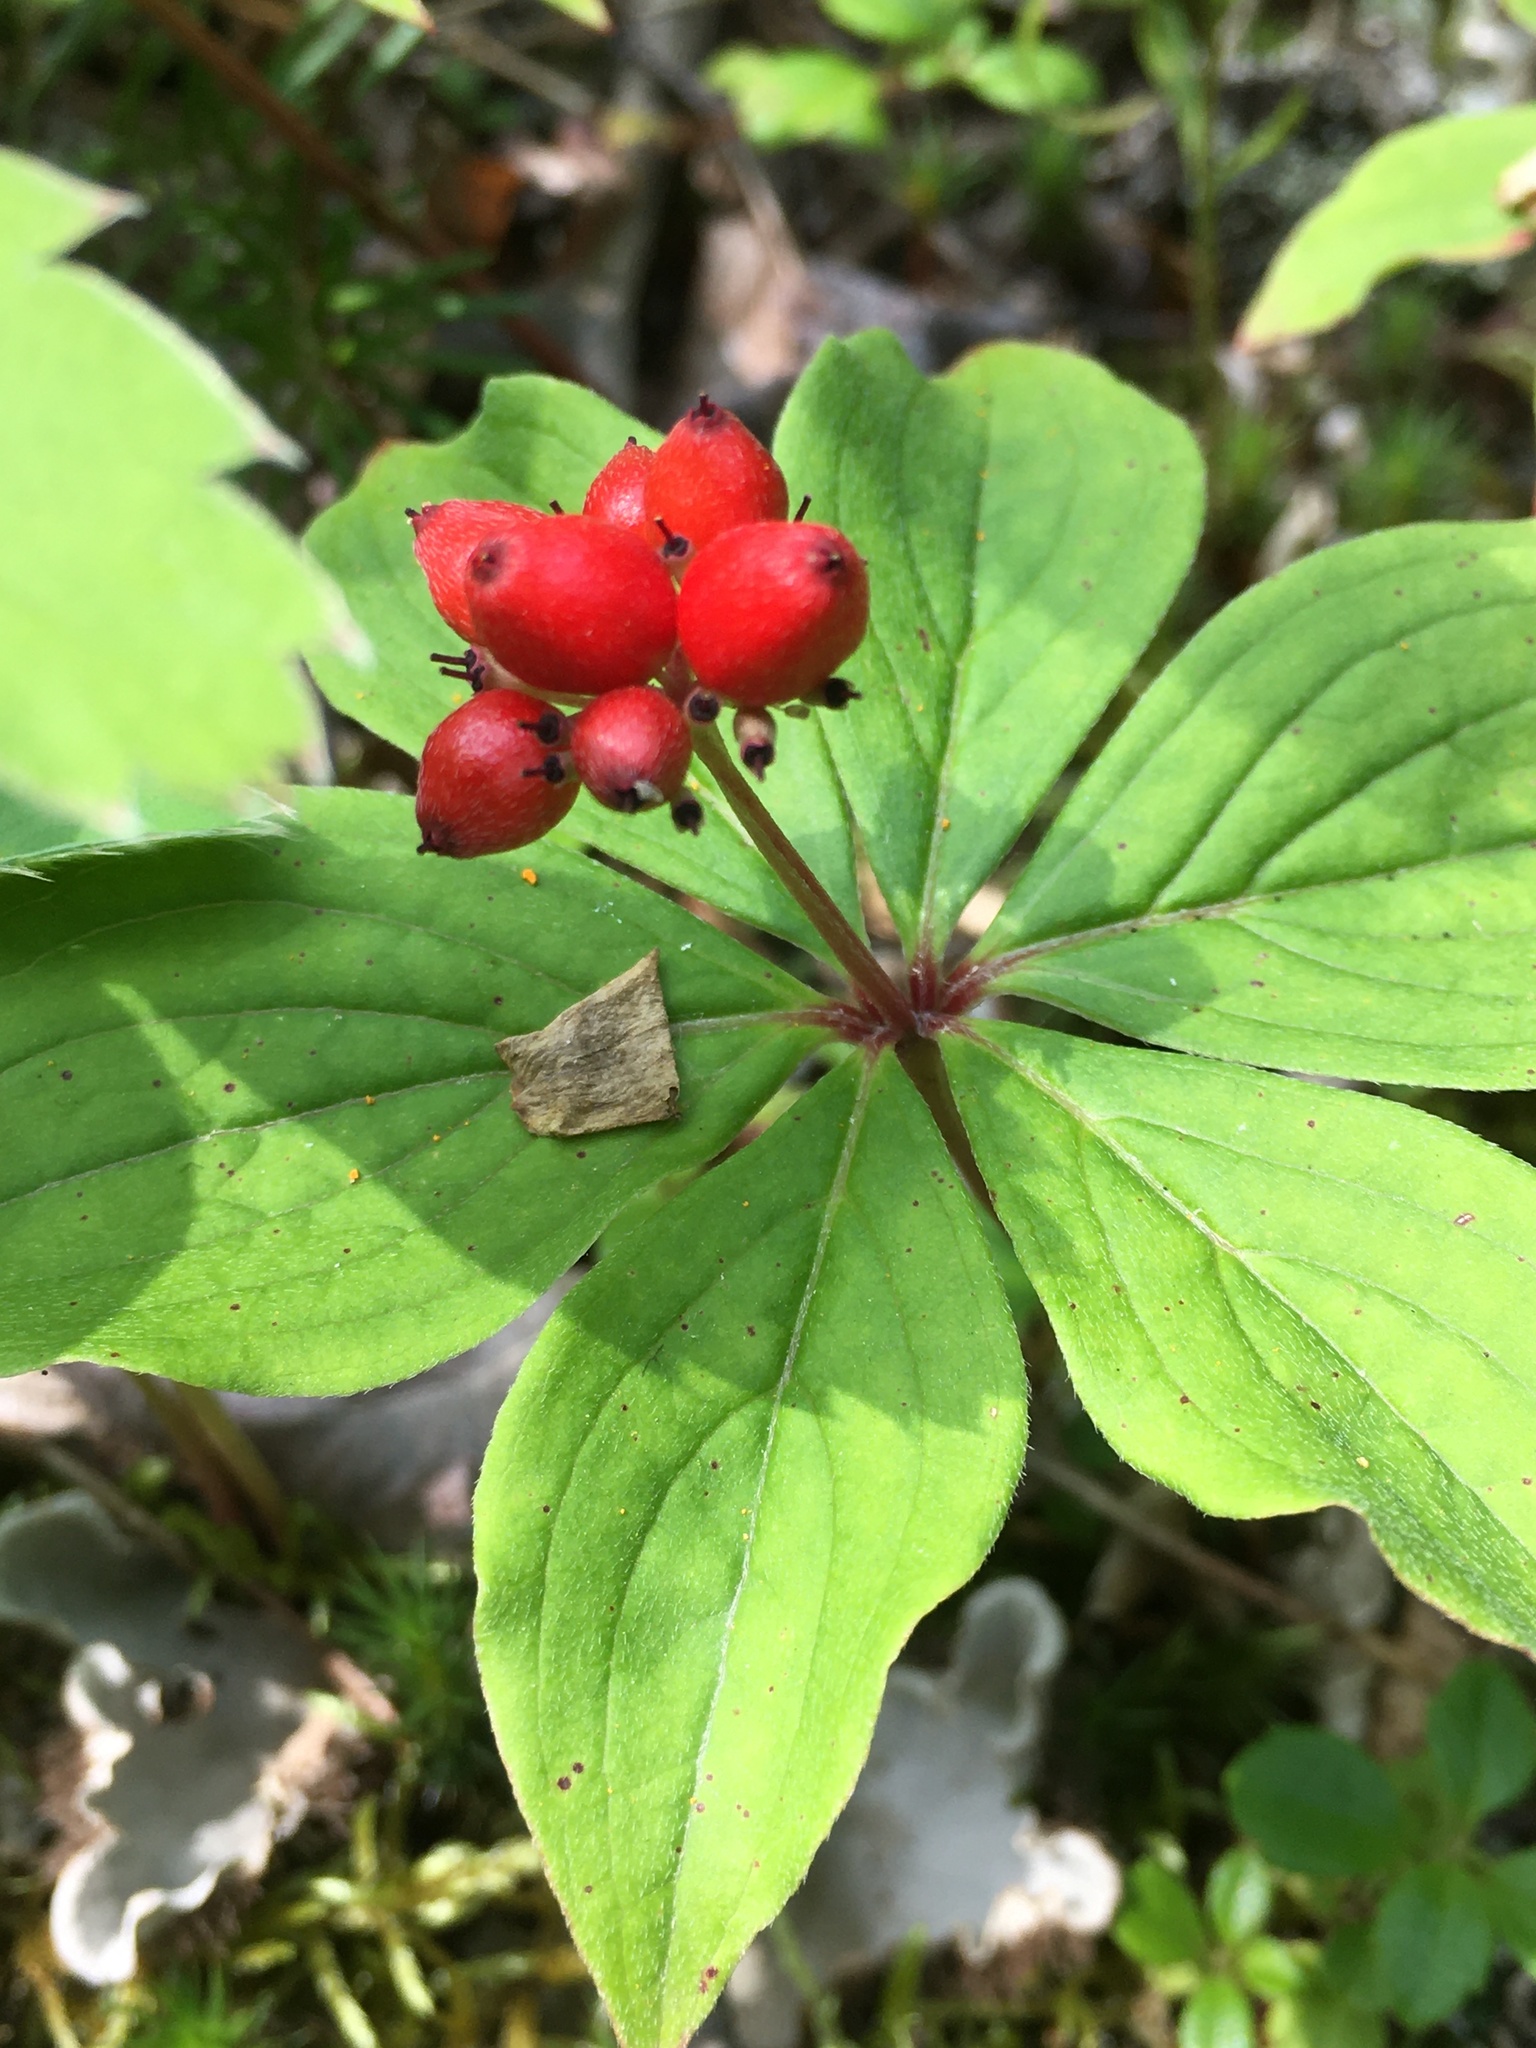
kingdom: Plantae
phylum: Tracheophyta
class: Magnoliopsida
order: Cornales
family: Cornaceae
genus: Cornus
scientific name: Cornus canadensis
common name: Creeping dogwood
